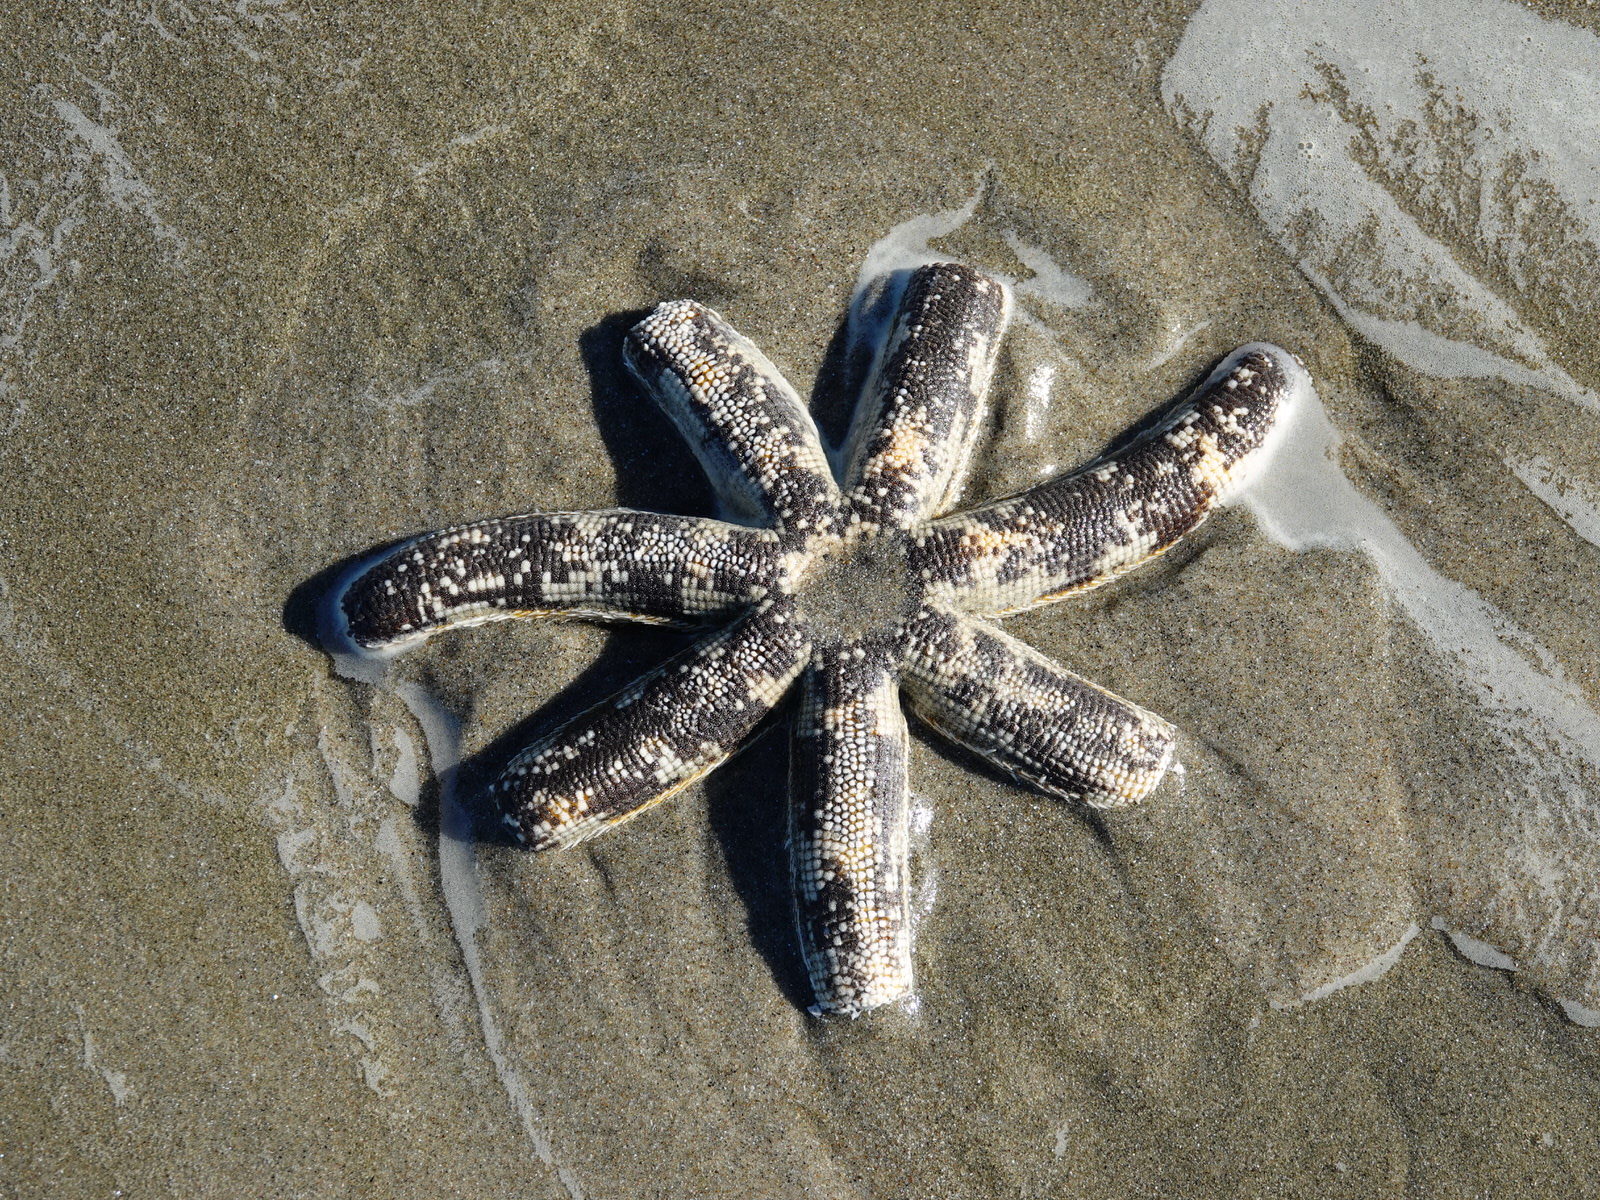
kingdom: Animalia
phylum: Echinodermata
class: Asteroidea
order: Paxillosida
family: Luidiidae
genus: Luidia
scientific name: Luidia australiae
